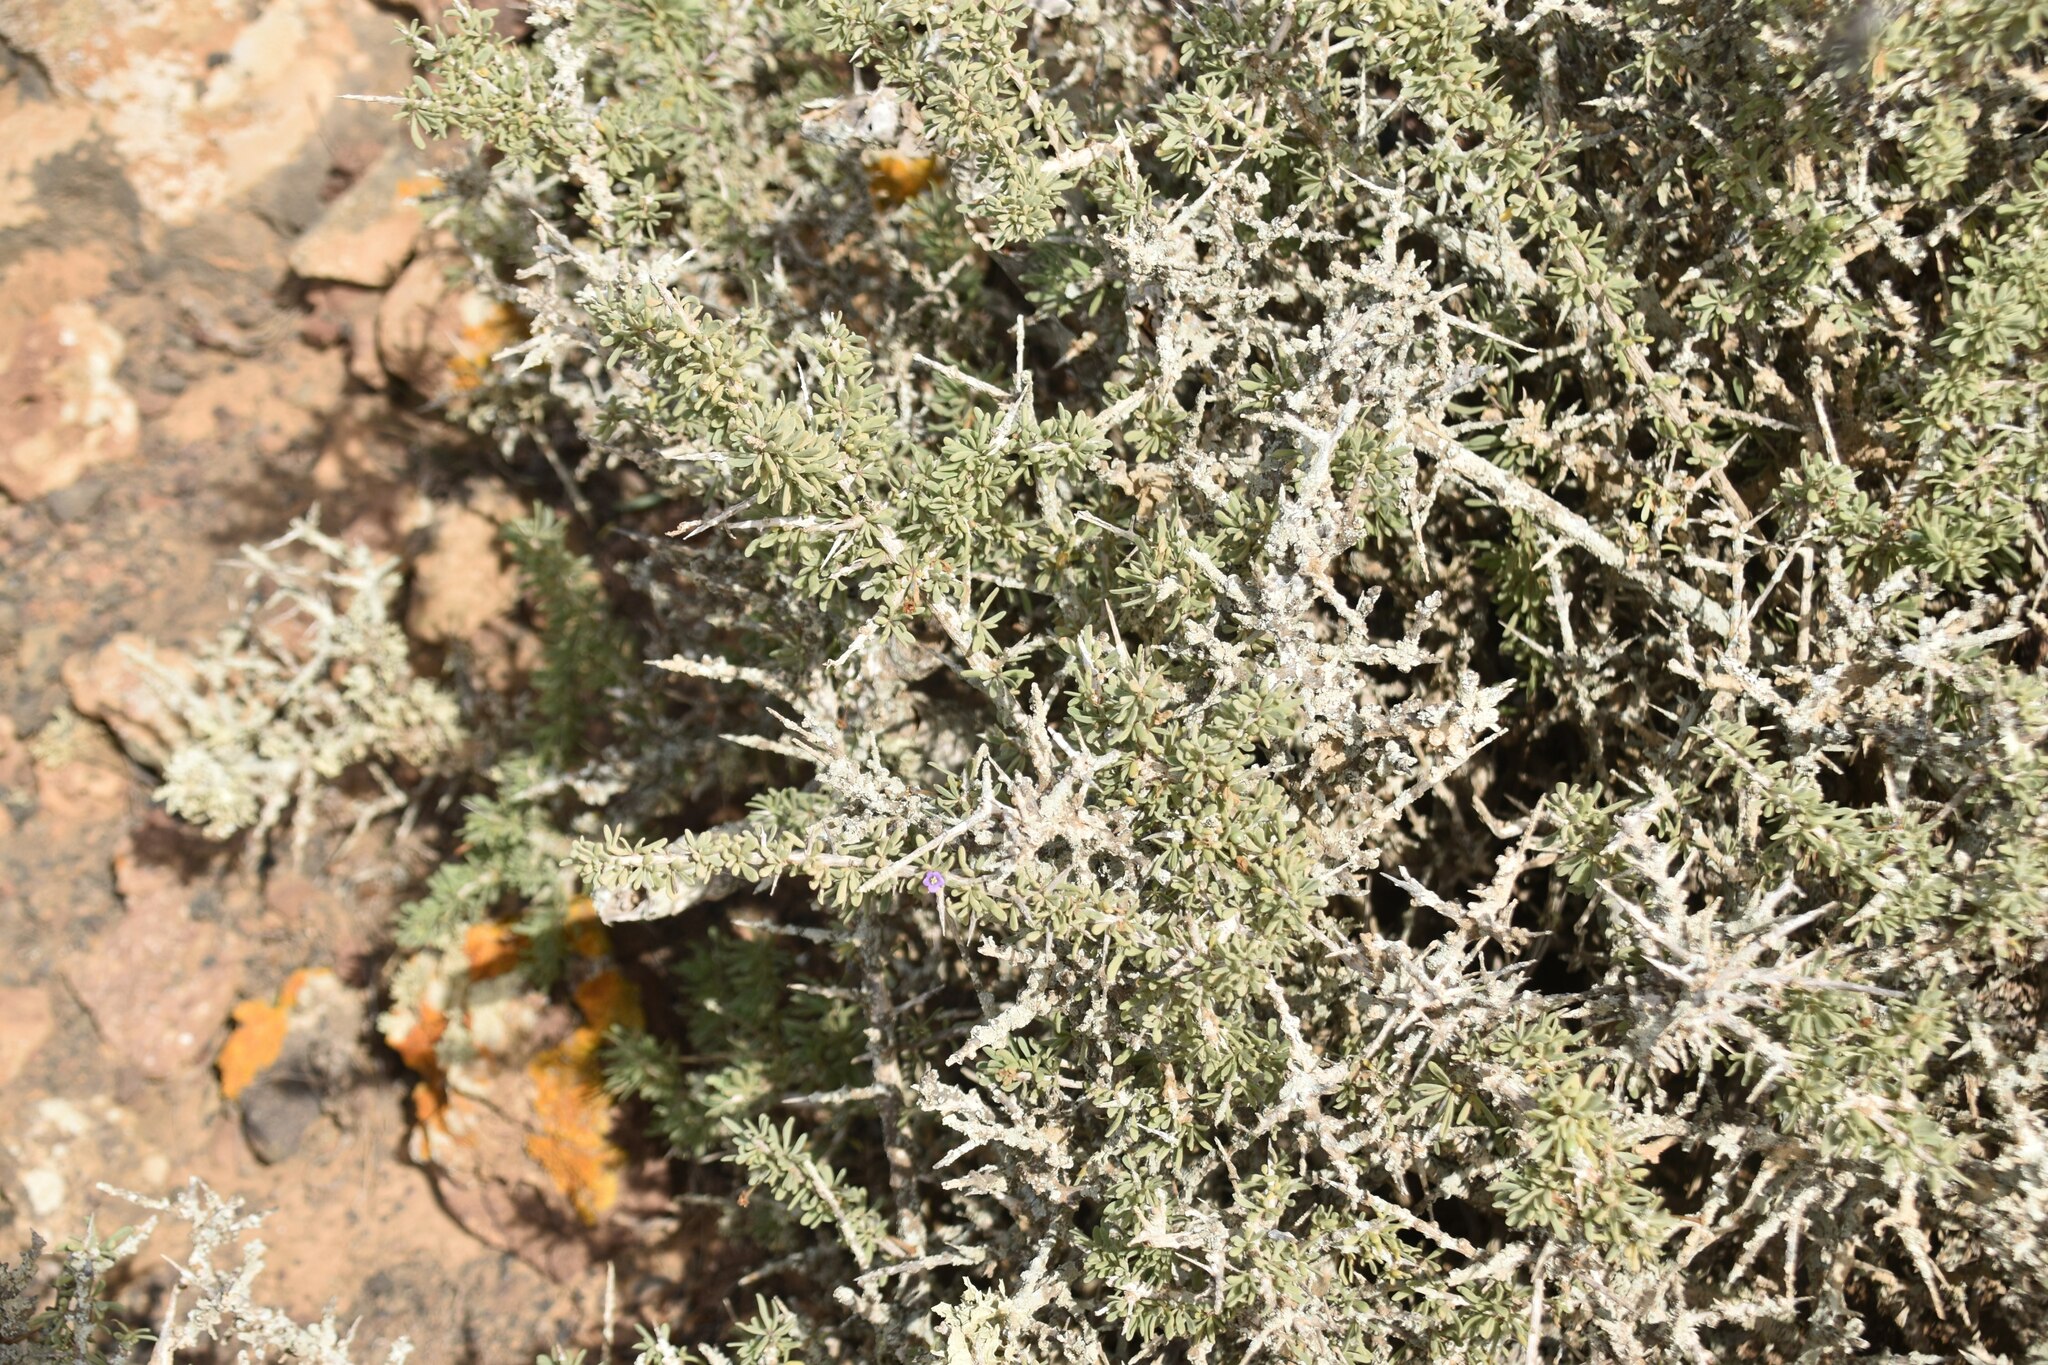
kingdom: Plantae
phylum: Tracheophyta
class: Magnoliopsida
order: Solanales
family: Solanaceae
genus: Lycium
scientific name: Lycium intricatum
